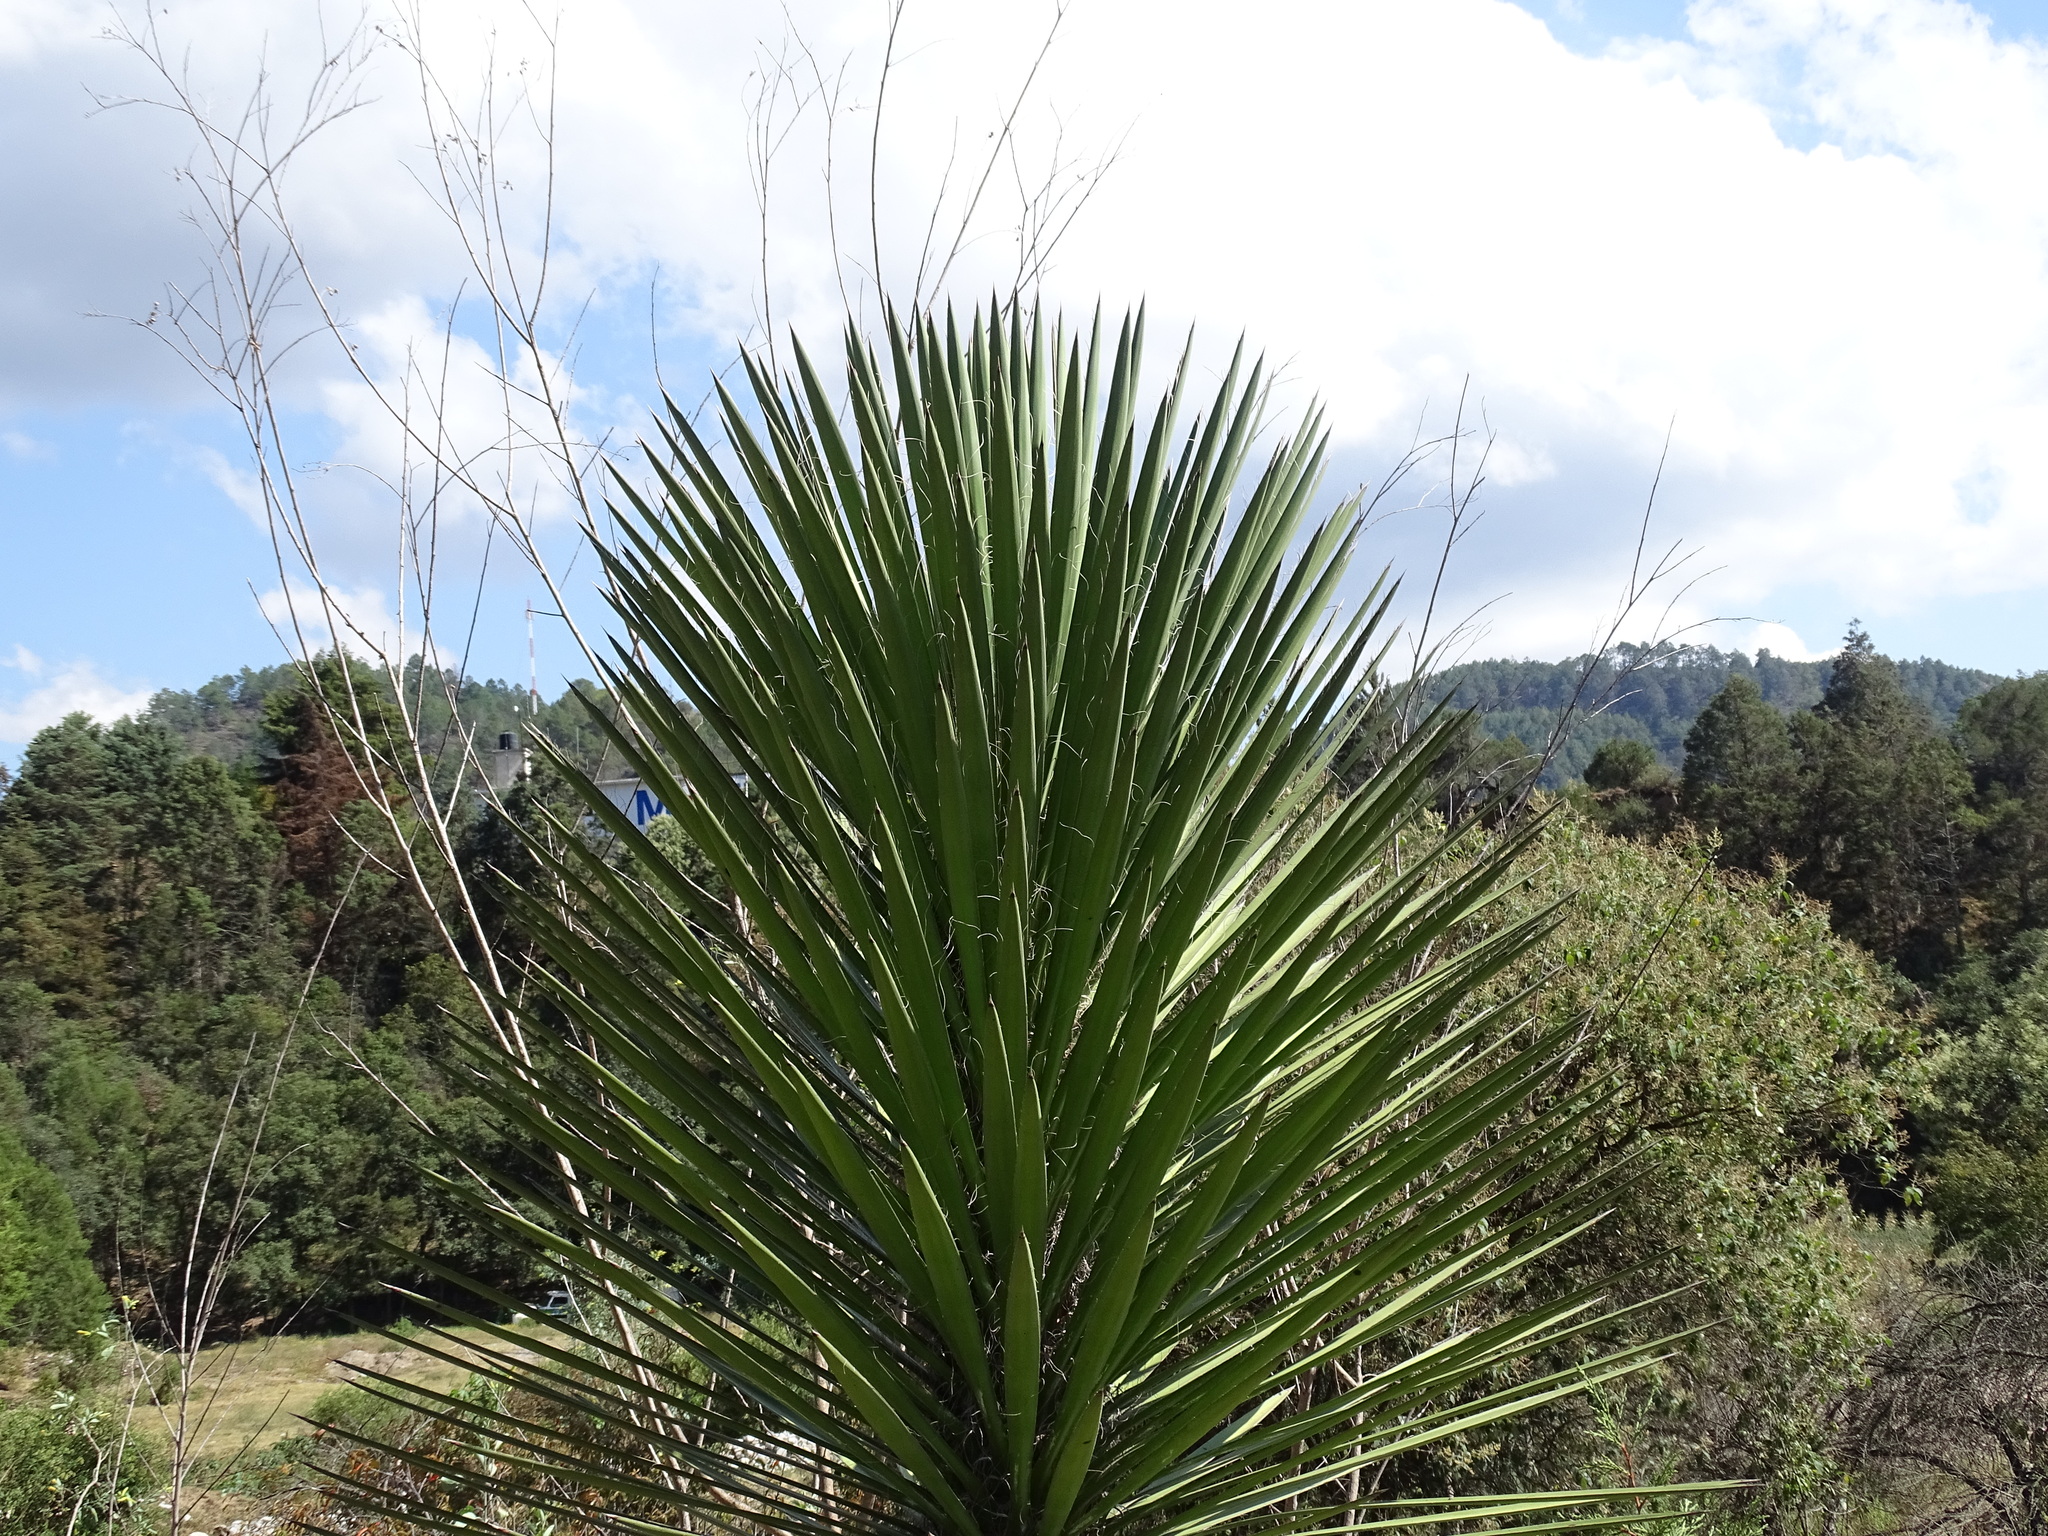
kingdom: Plantae
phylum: Tracheophyta
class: Liliopsida
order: Asparagales
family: Asparagaceae
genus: Agave
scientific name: Agave karwinskii
